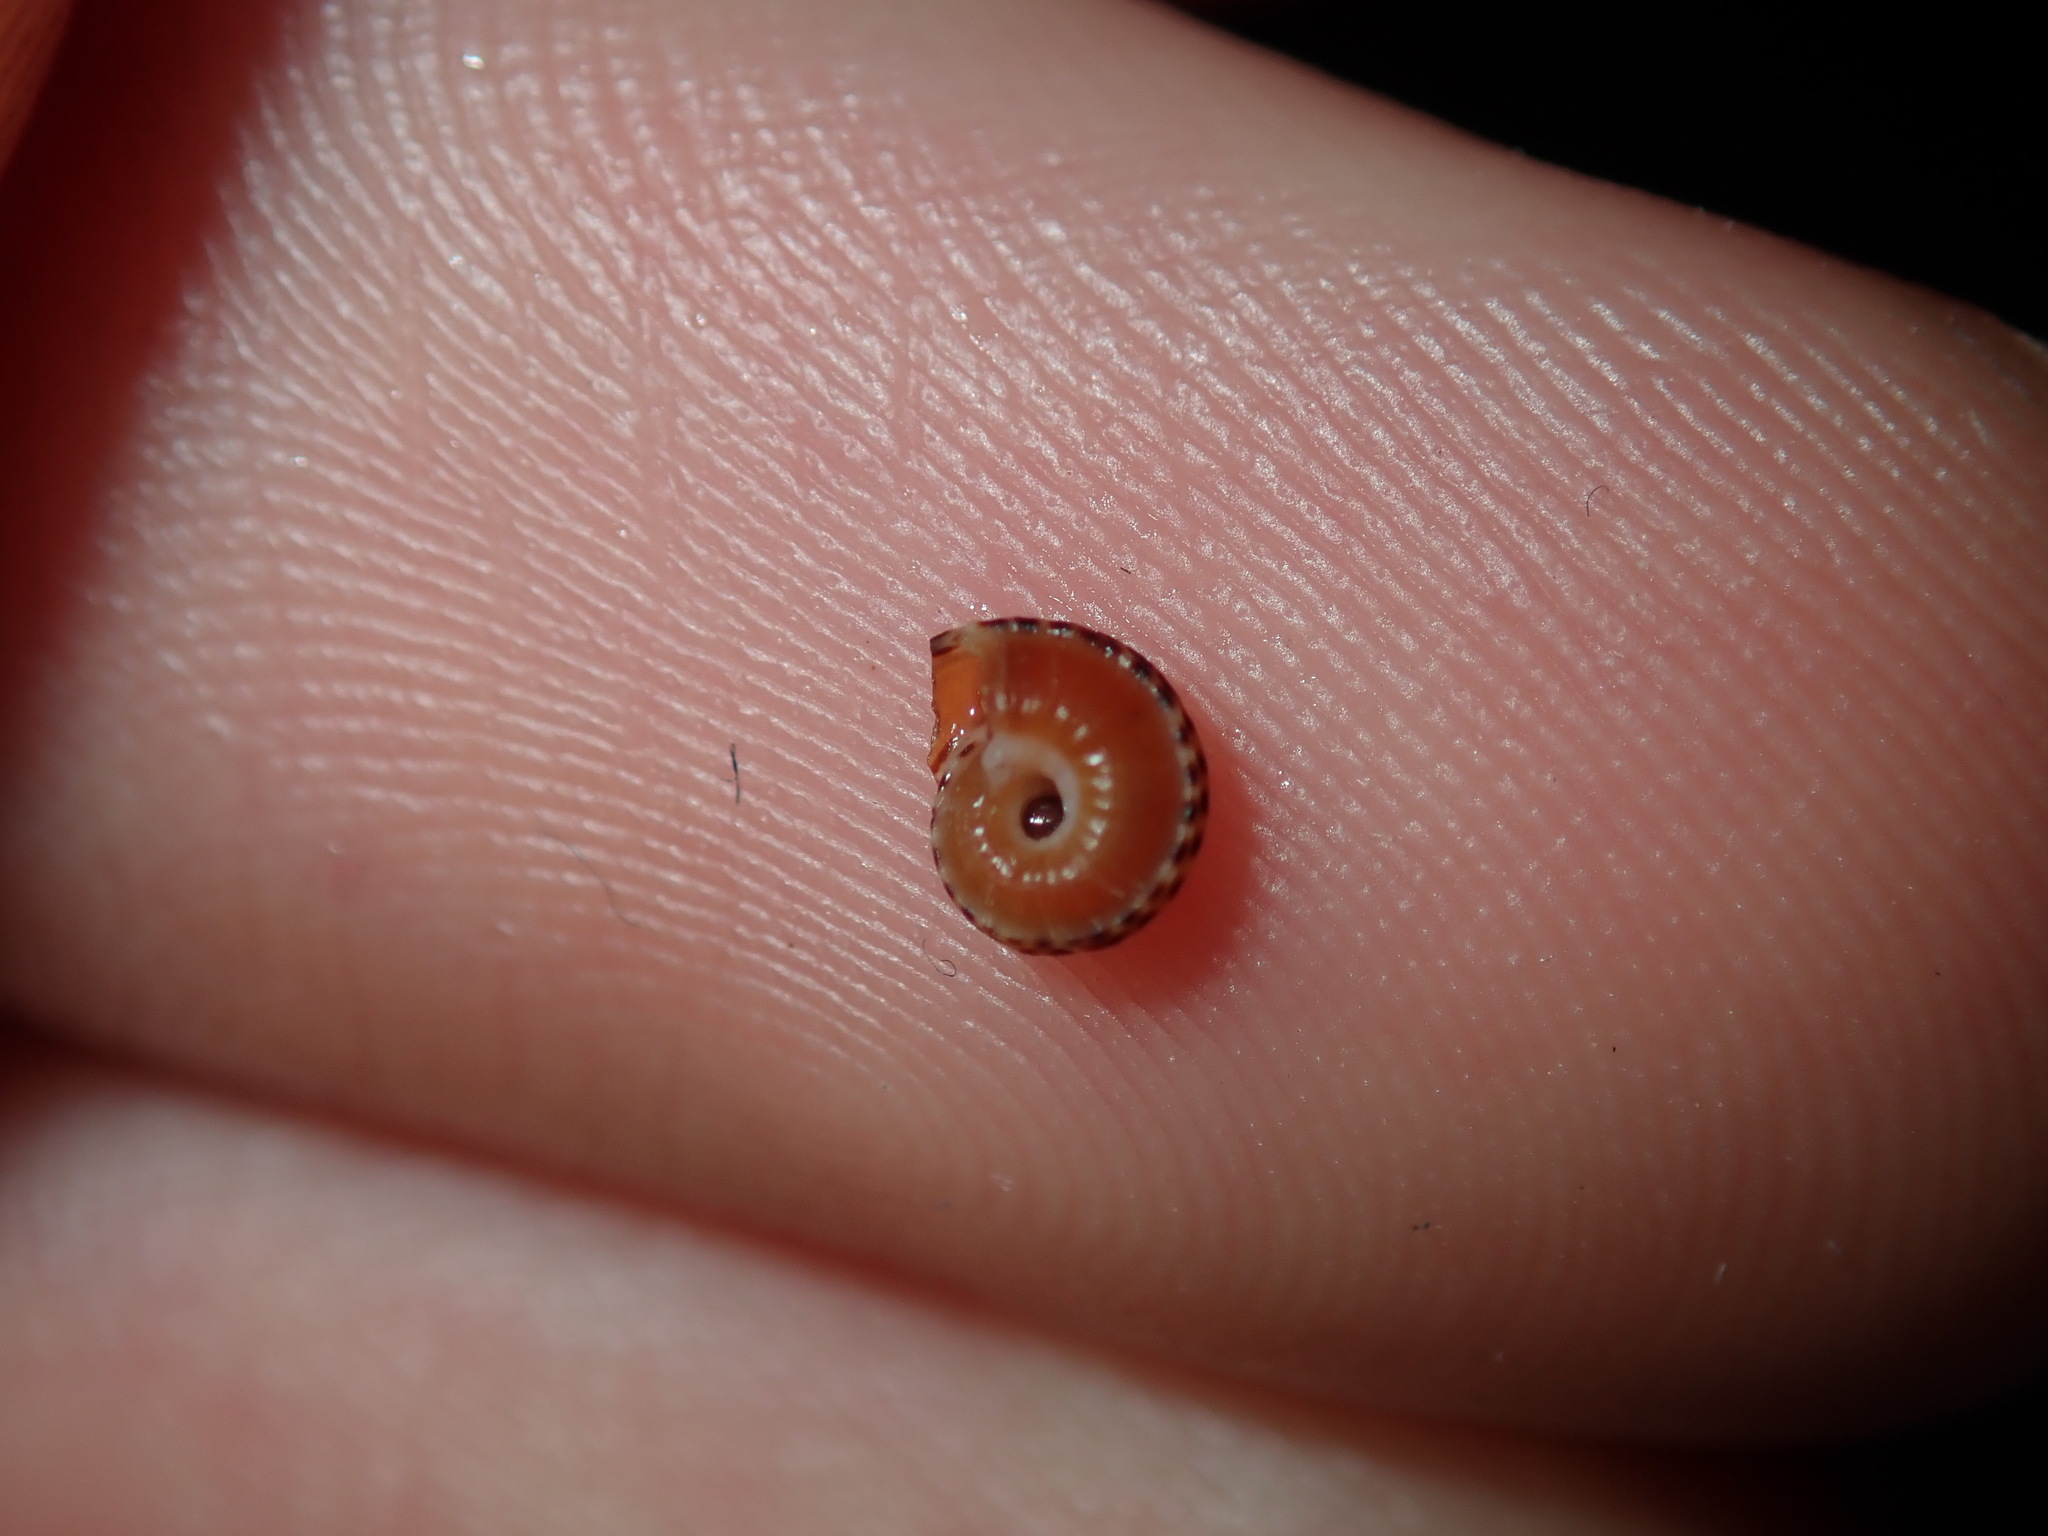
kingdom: Animalia
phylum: Mollusca
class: Gastropoda
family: Architectonicidae
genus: Philippia
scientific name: Philippia lutea
